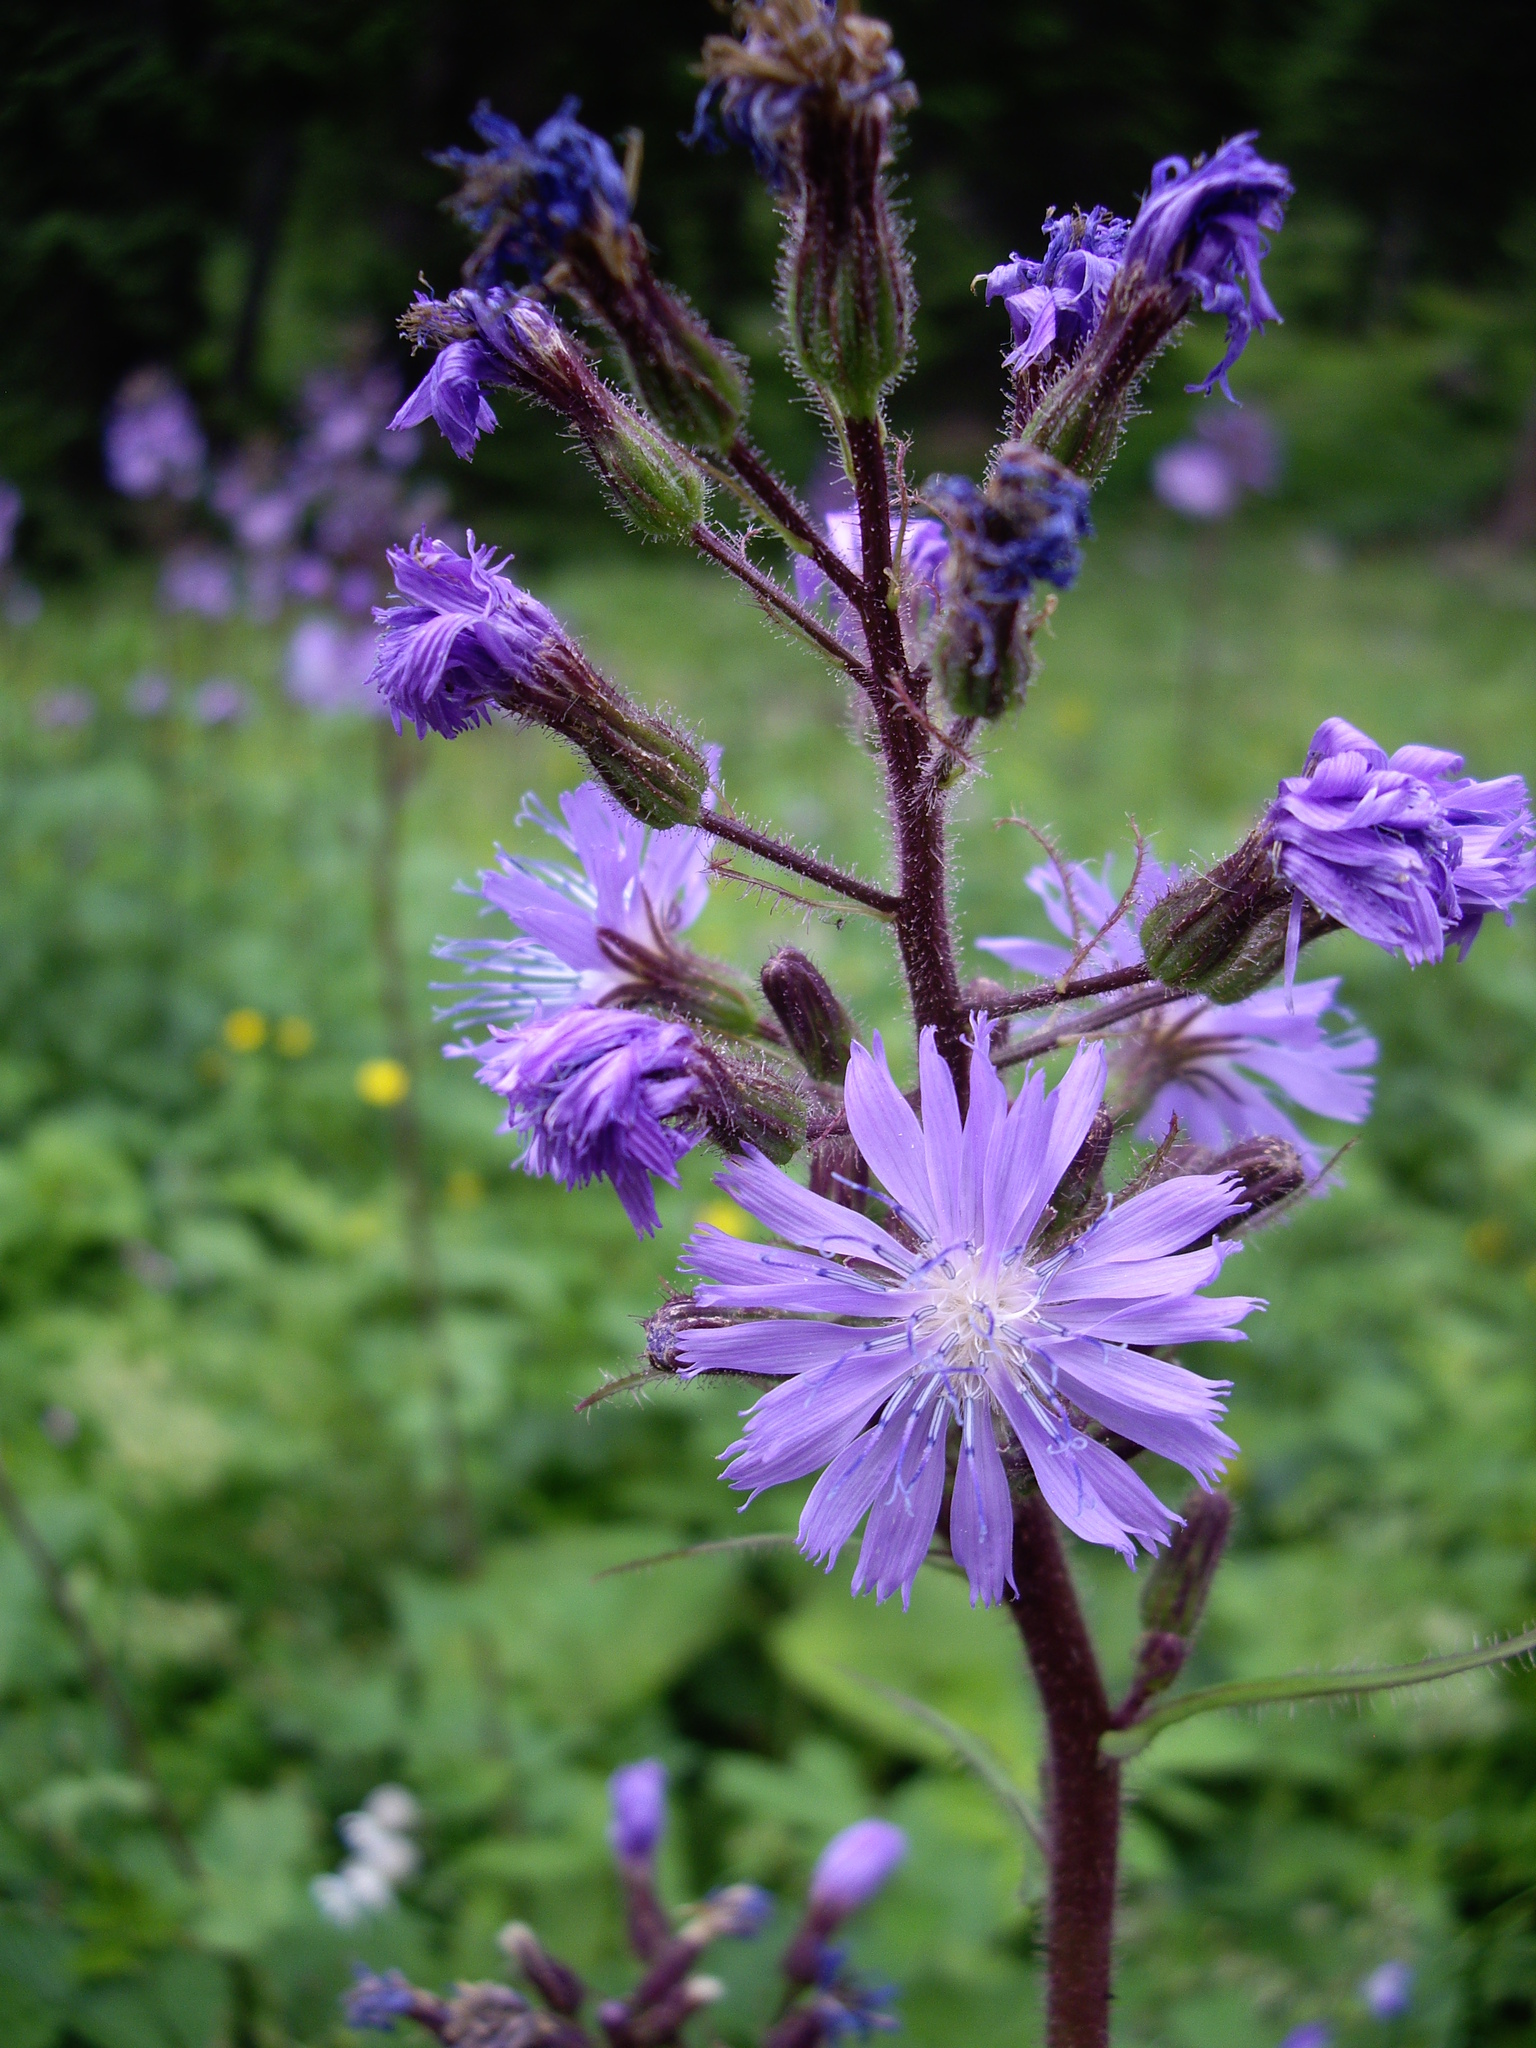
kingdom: Plantae
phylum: Tracheophyta
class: Magnoliopsida
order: Asterales
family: Asteraceae
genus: Cicerbita
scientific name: Cicerbita alpina
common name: Alpine blue-sow-thistle
